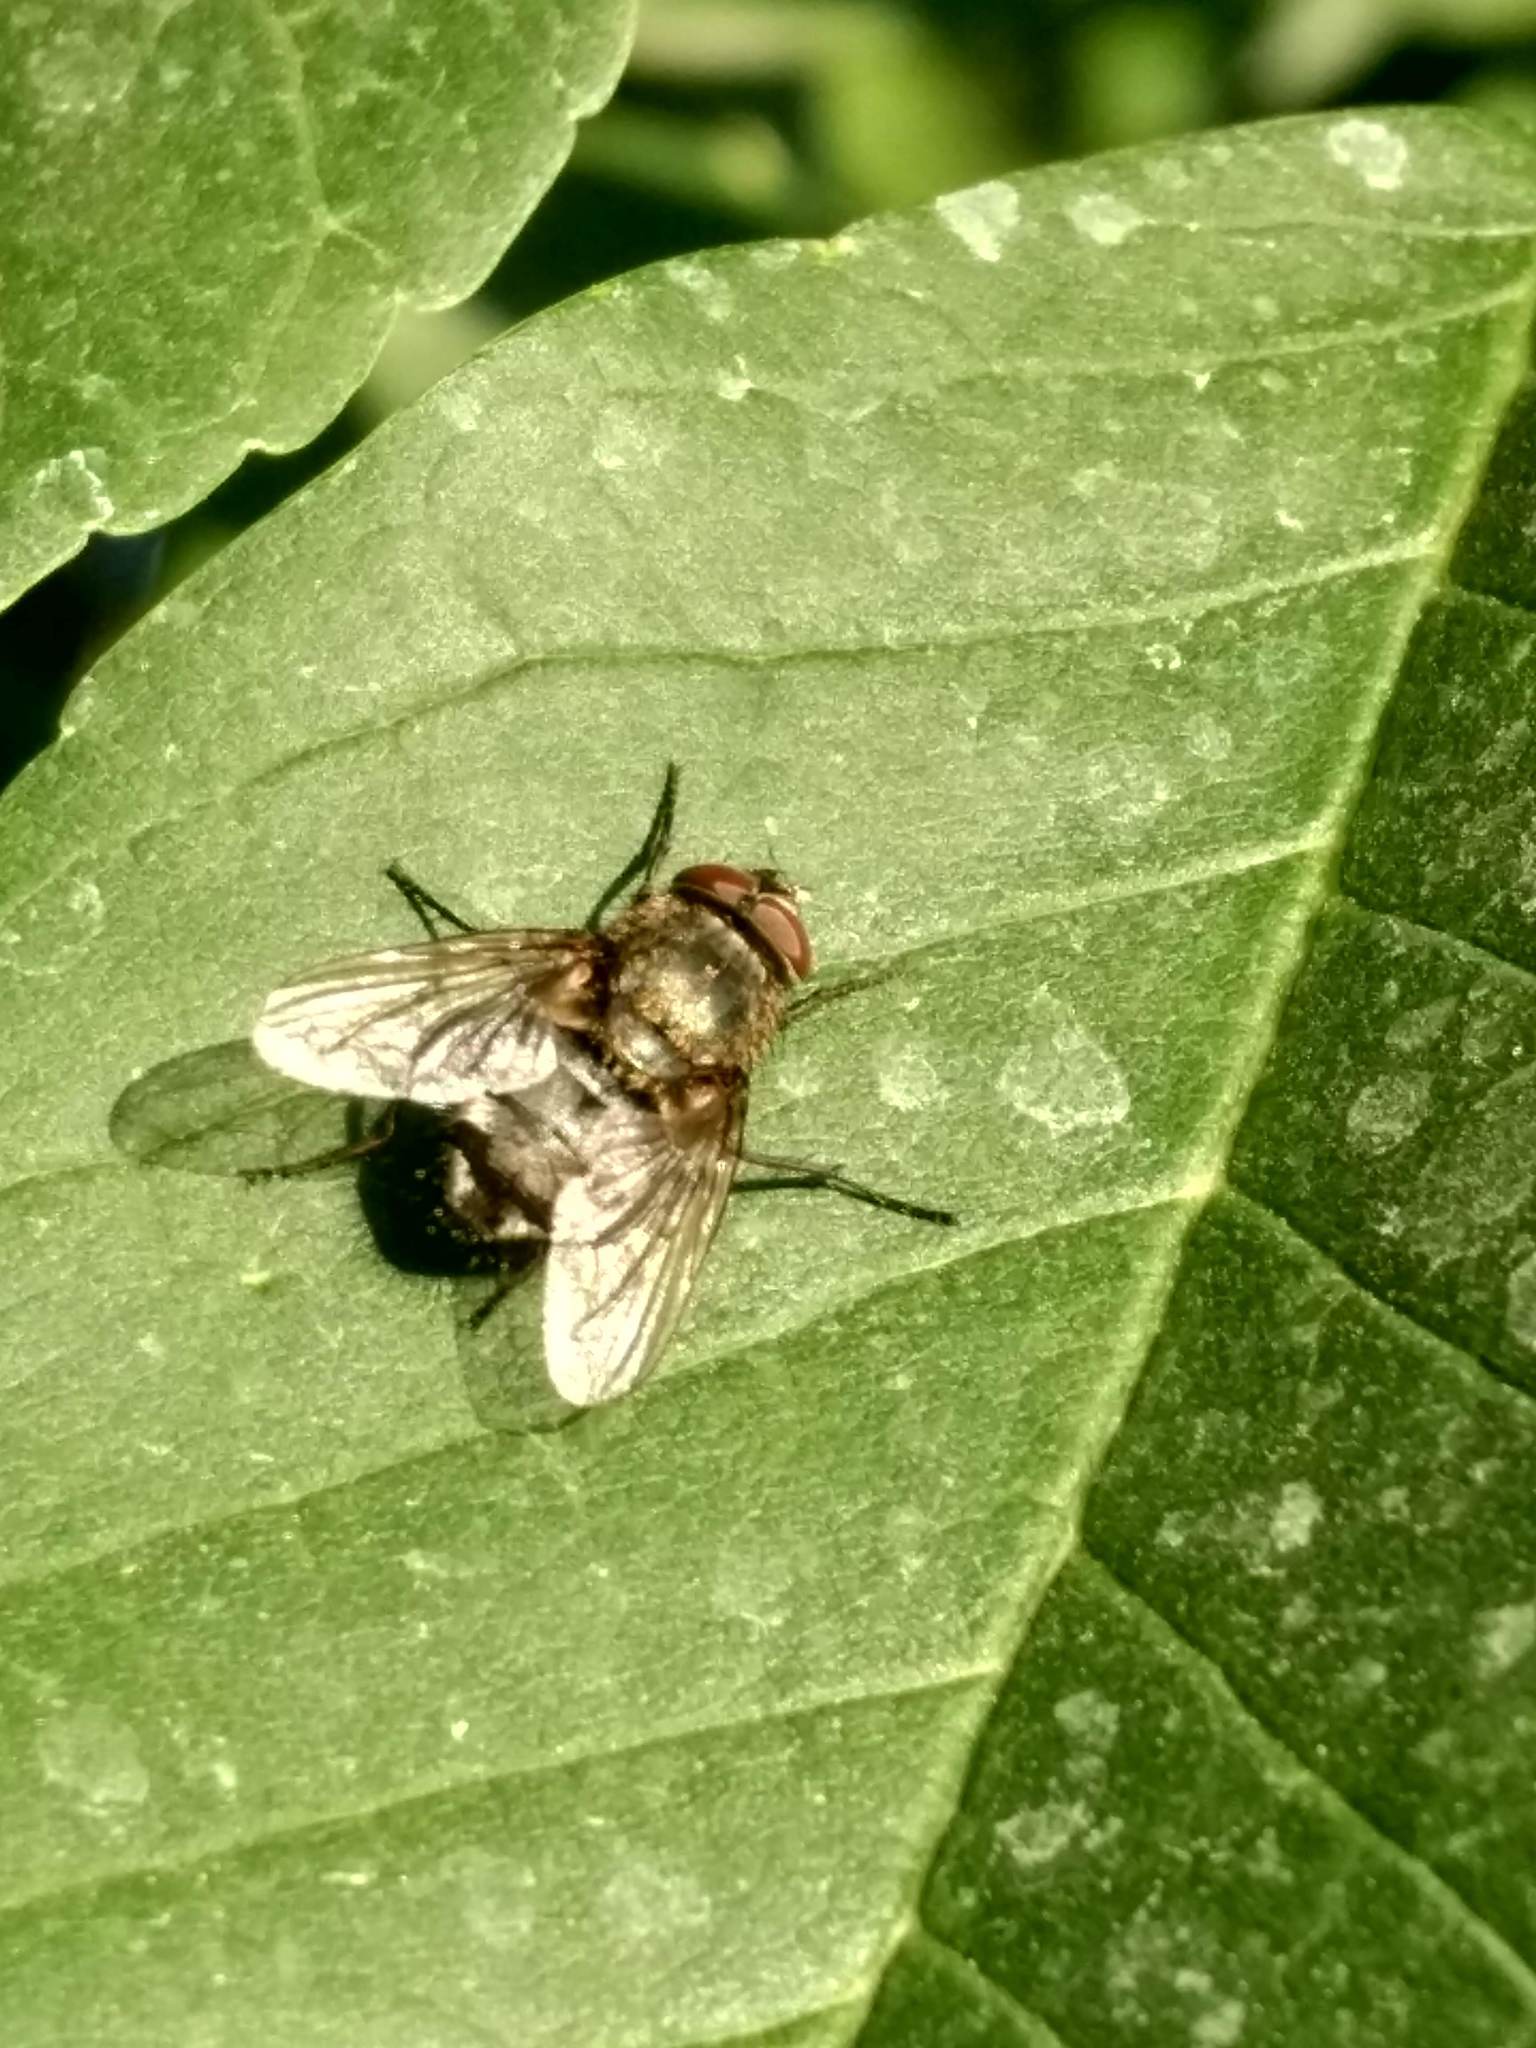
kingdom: Animalia
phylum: Arthropoda
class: Insecta
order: Diptera
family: Polleniidae
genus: Pollenia
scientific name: Pollenia
